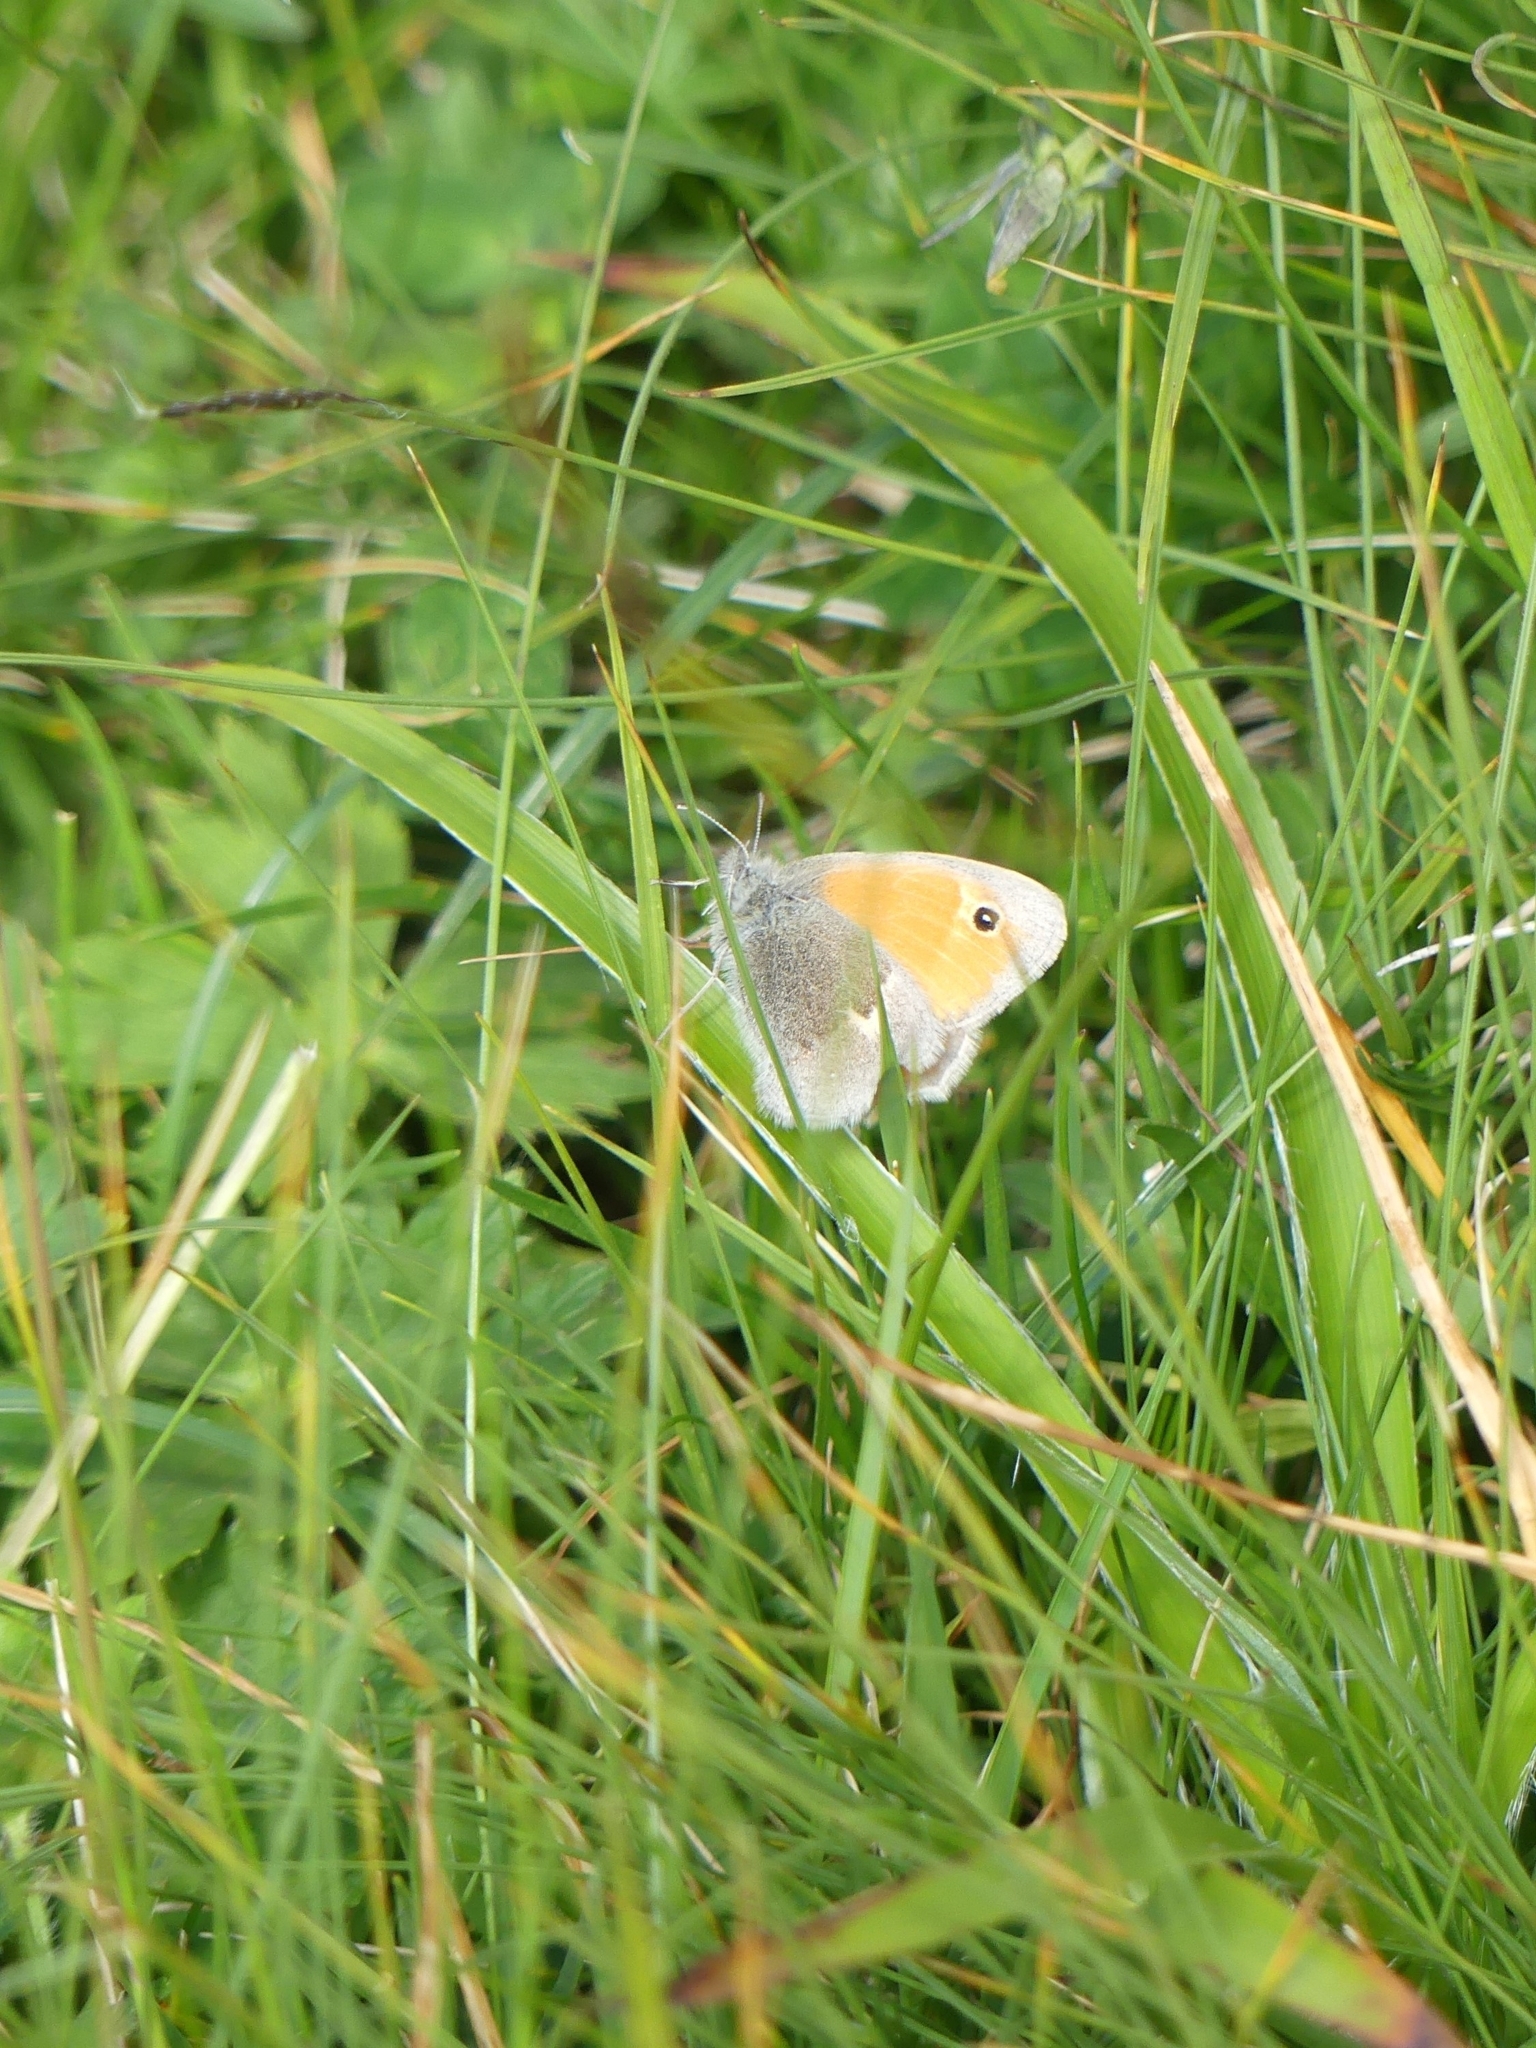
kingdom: Animalia
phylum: Arthropoda
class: Insecta
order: Lepidoptera
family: Nymphalidae
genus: Coenonympha
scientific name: Coenonympha pamphilus
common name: Small heath
